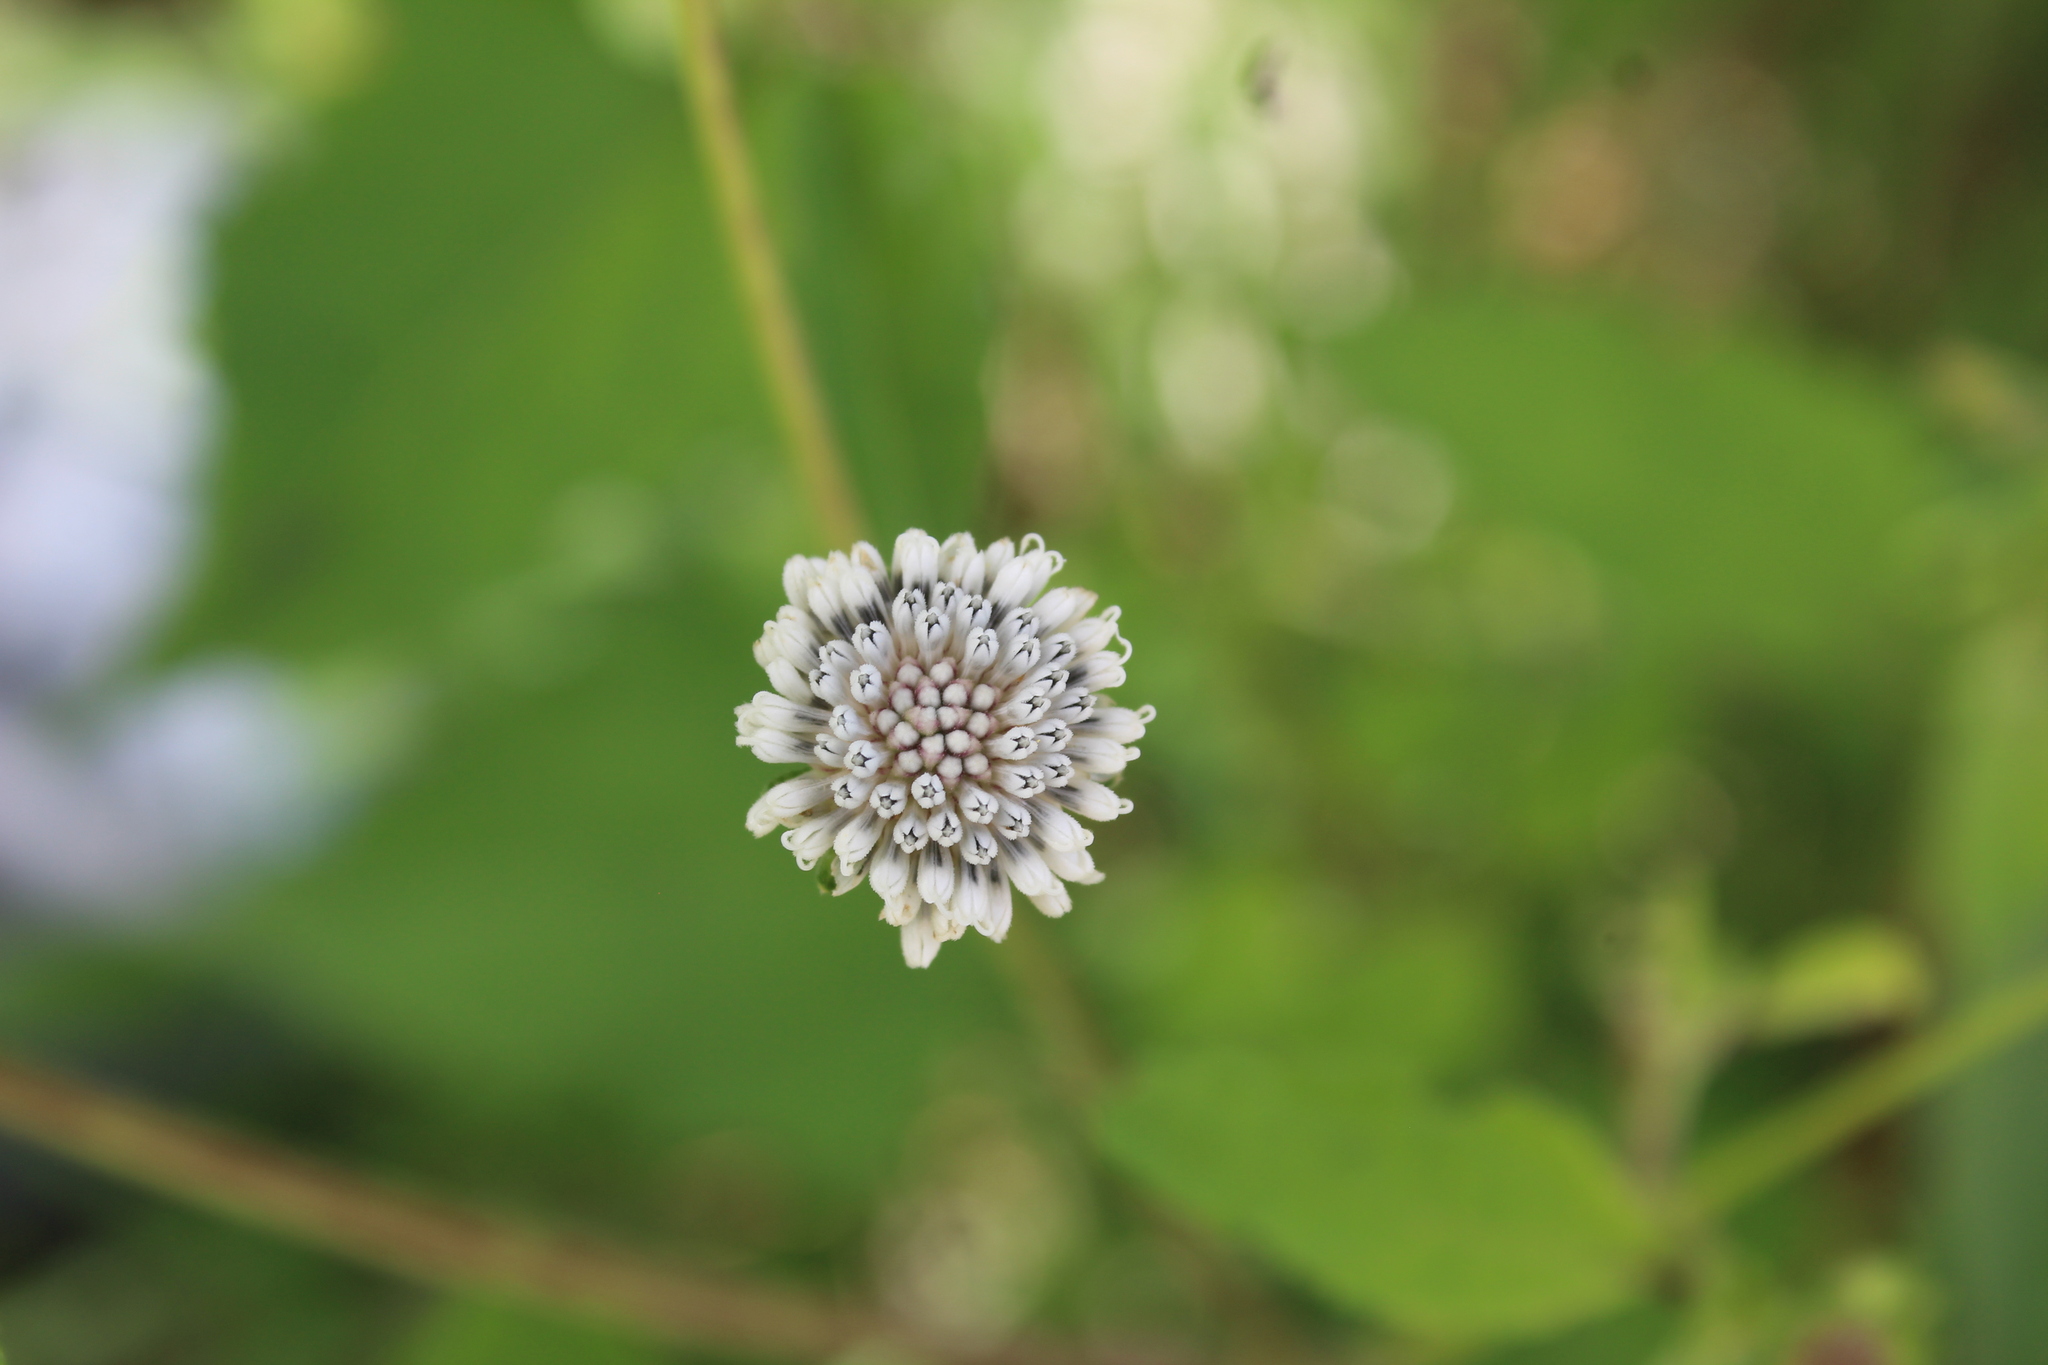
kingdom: Plantae
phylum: Tracheophyta
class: Magnoliopsida
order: Asterales
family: Asteraceae
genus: Melanthera
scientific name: Melanthera nivea
